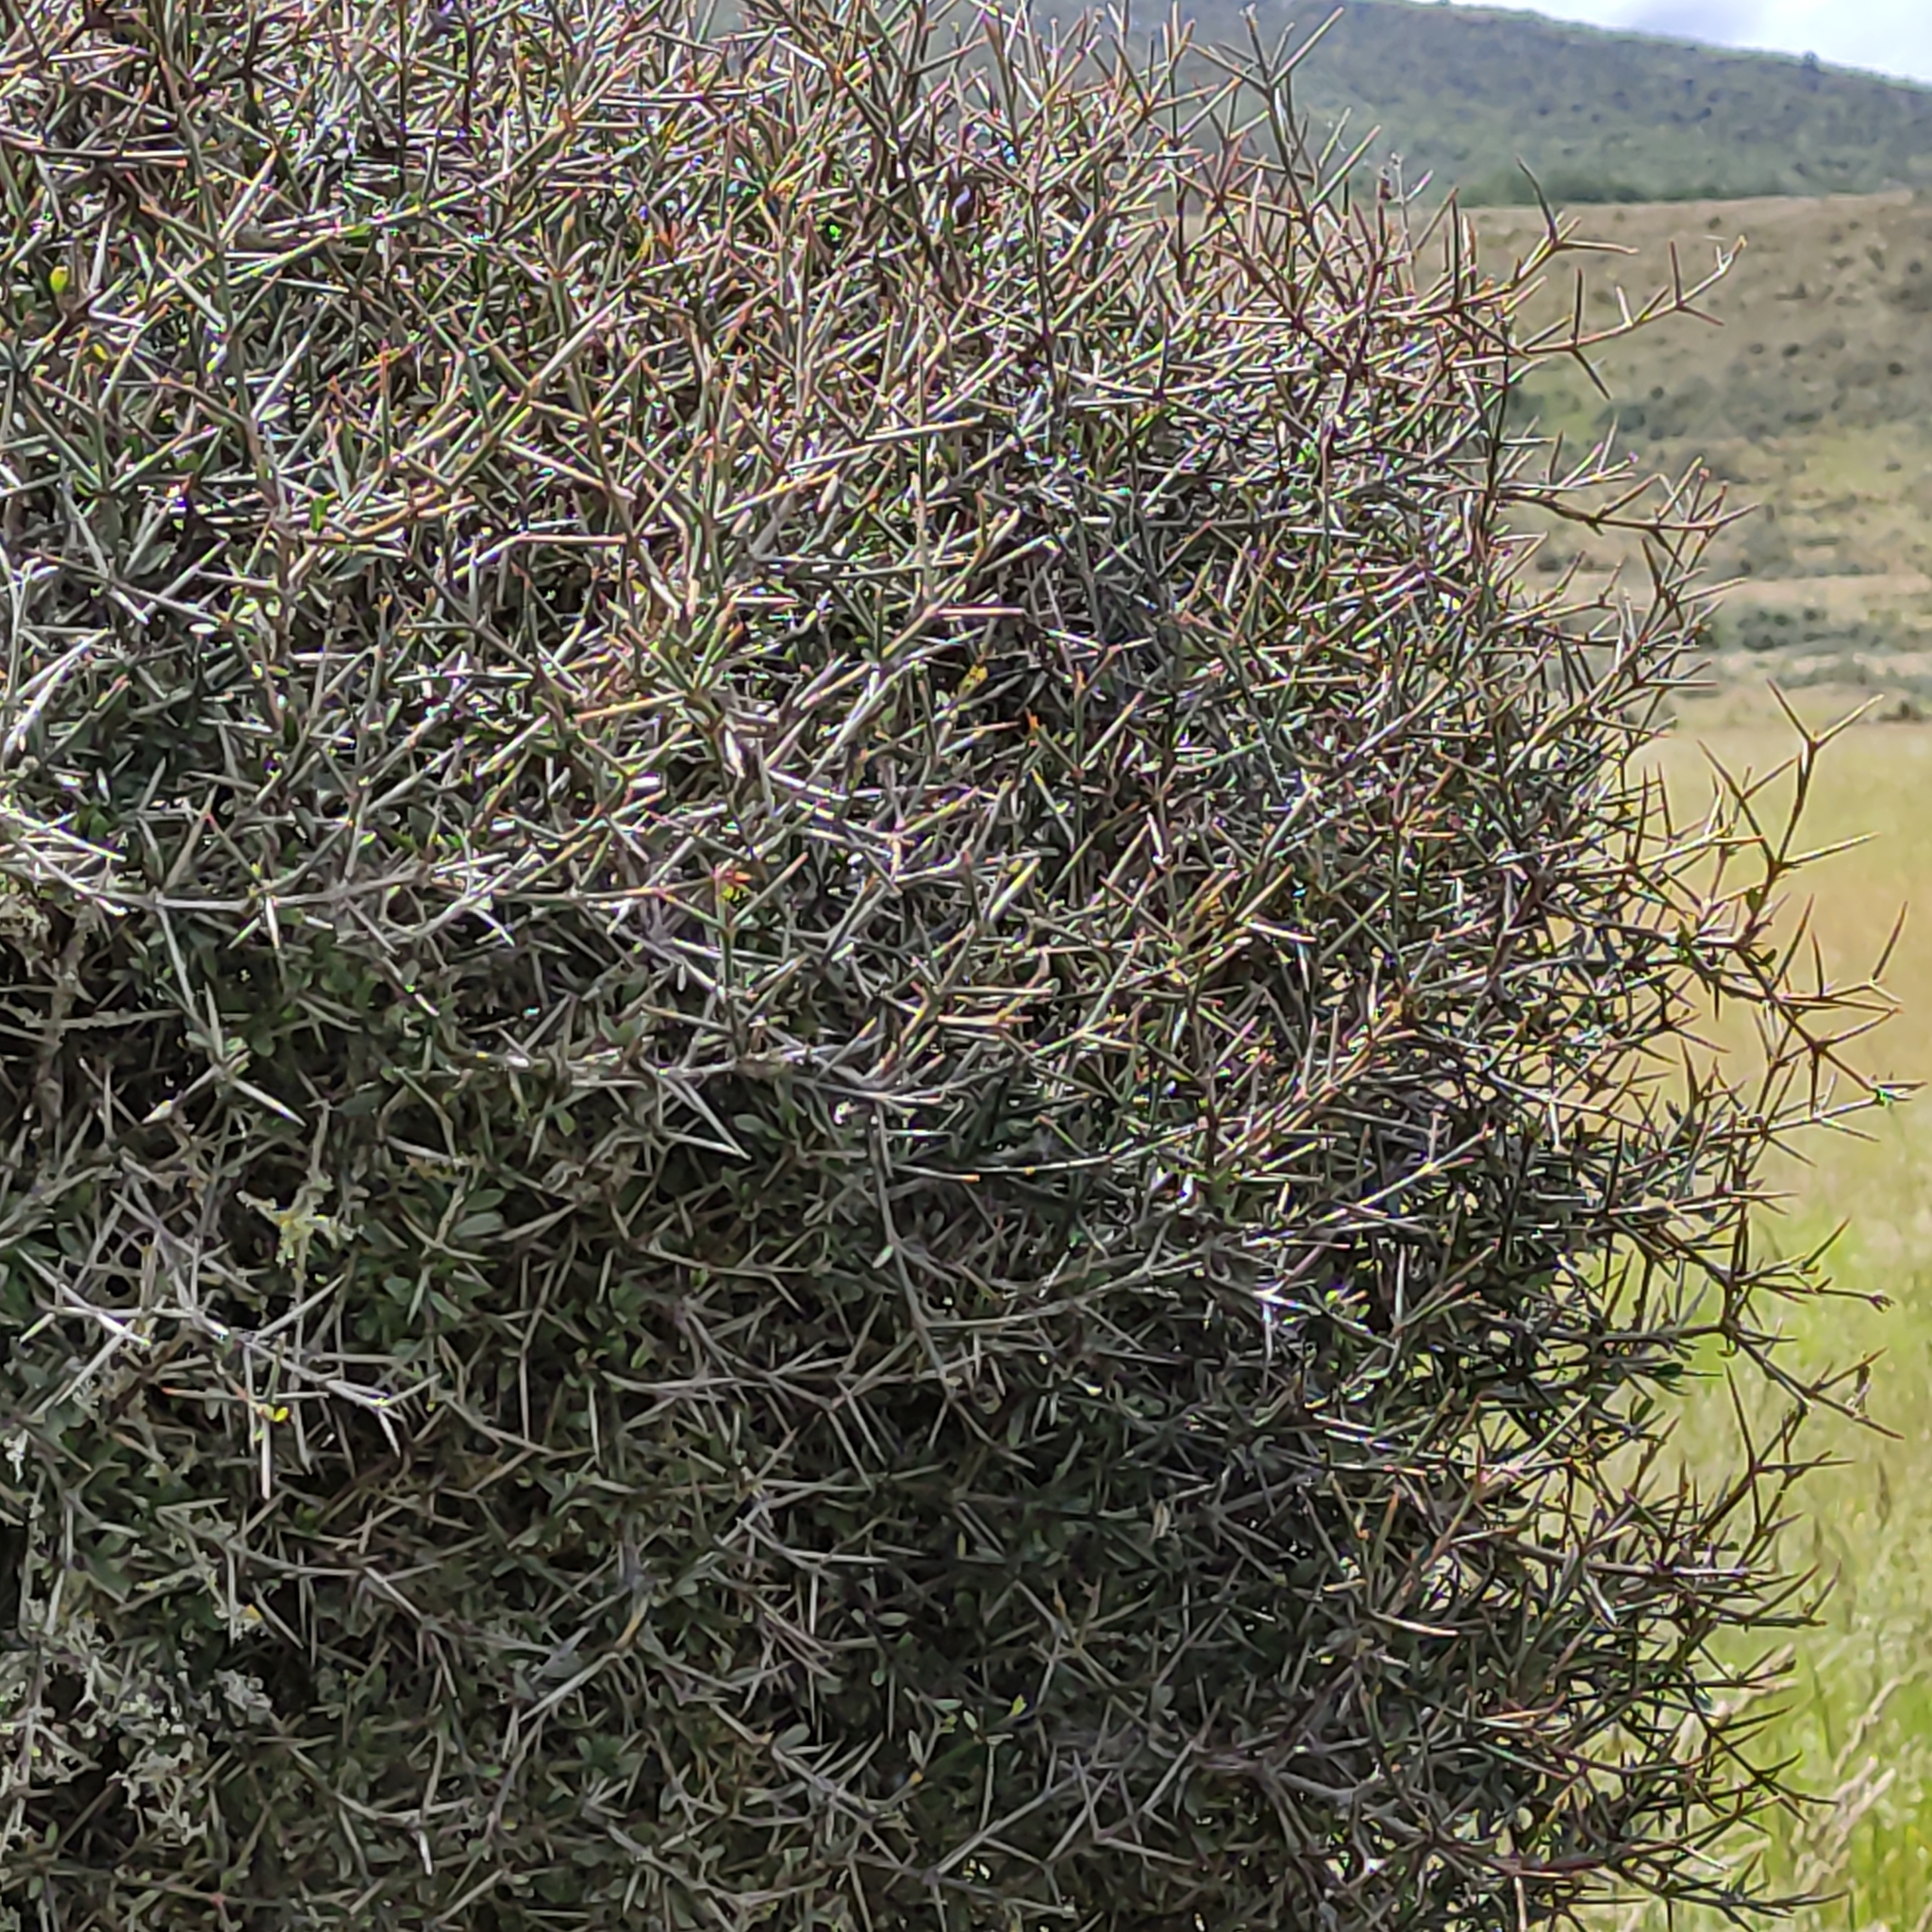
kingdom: Plantae
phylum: Tracheophyta
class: Magnoliopsida
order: Rosales
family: Rhamnaceae
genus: Discaria
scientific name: Discaria toumatou
